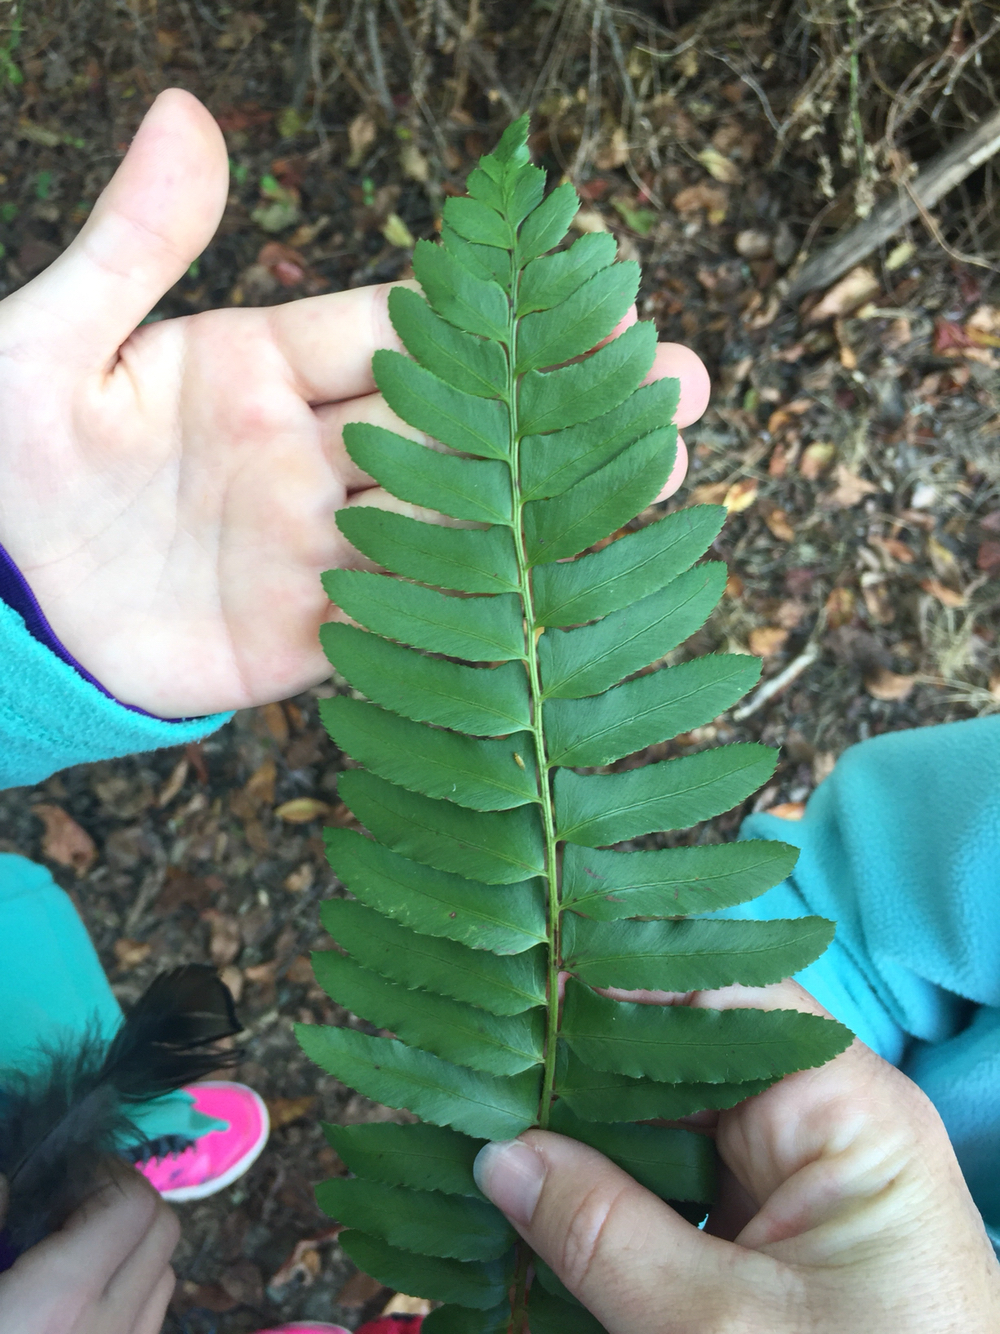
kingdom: Plantae
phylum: Tracheophyta
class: Polypodiopsida
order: Polypodiales
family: Dryopteridaceae
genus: Polystichum
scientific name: Polystichum acrostichoides
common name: Christmas fern
